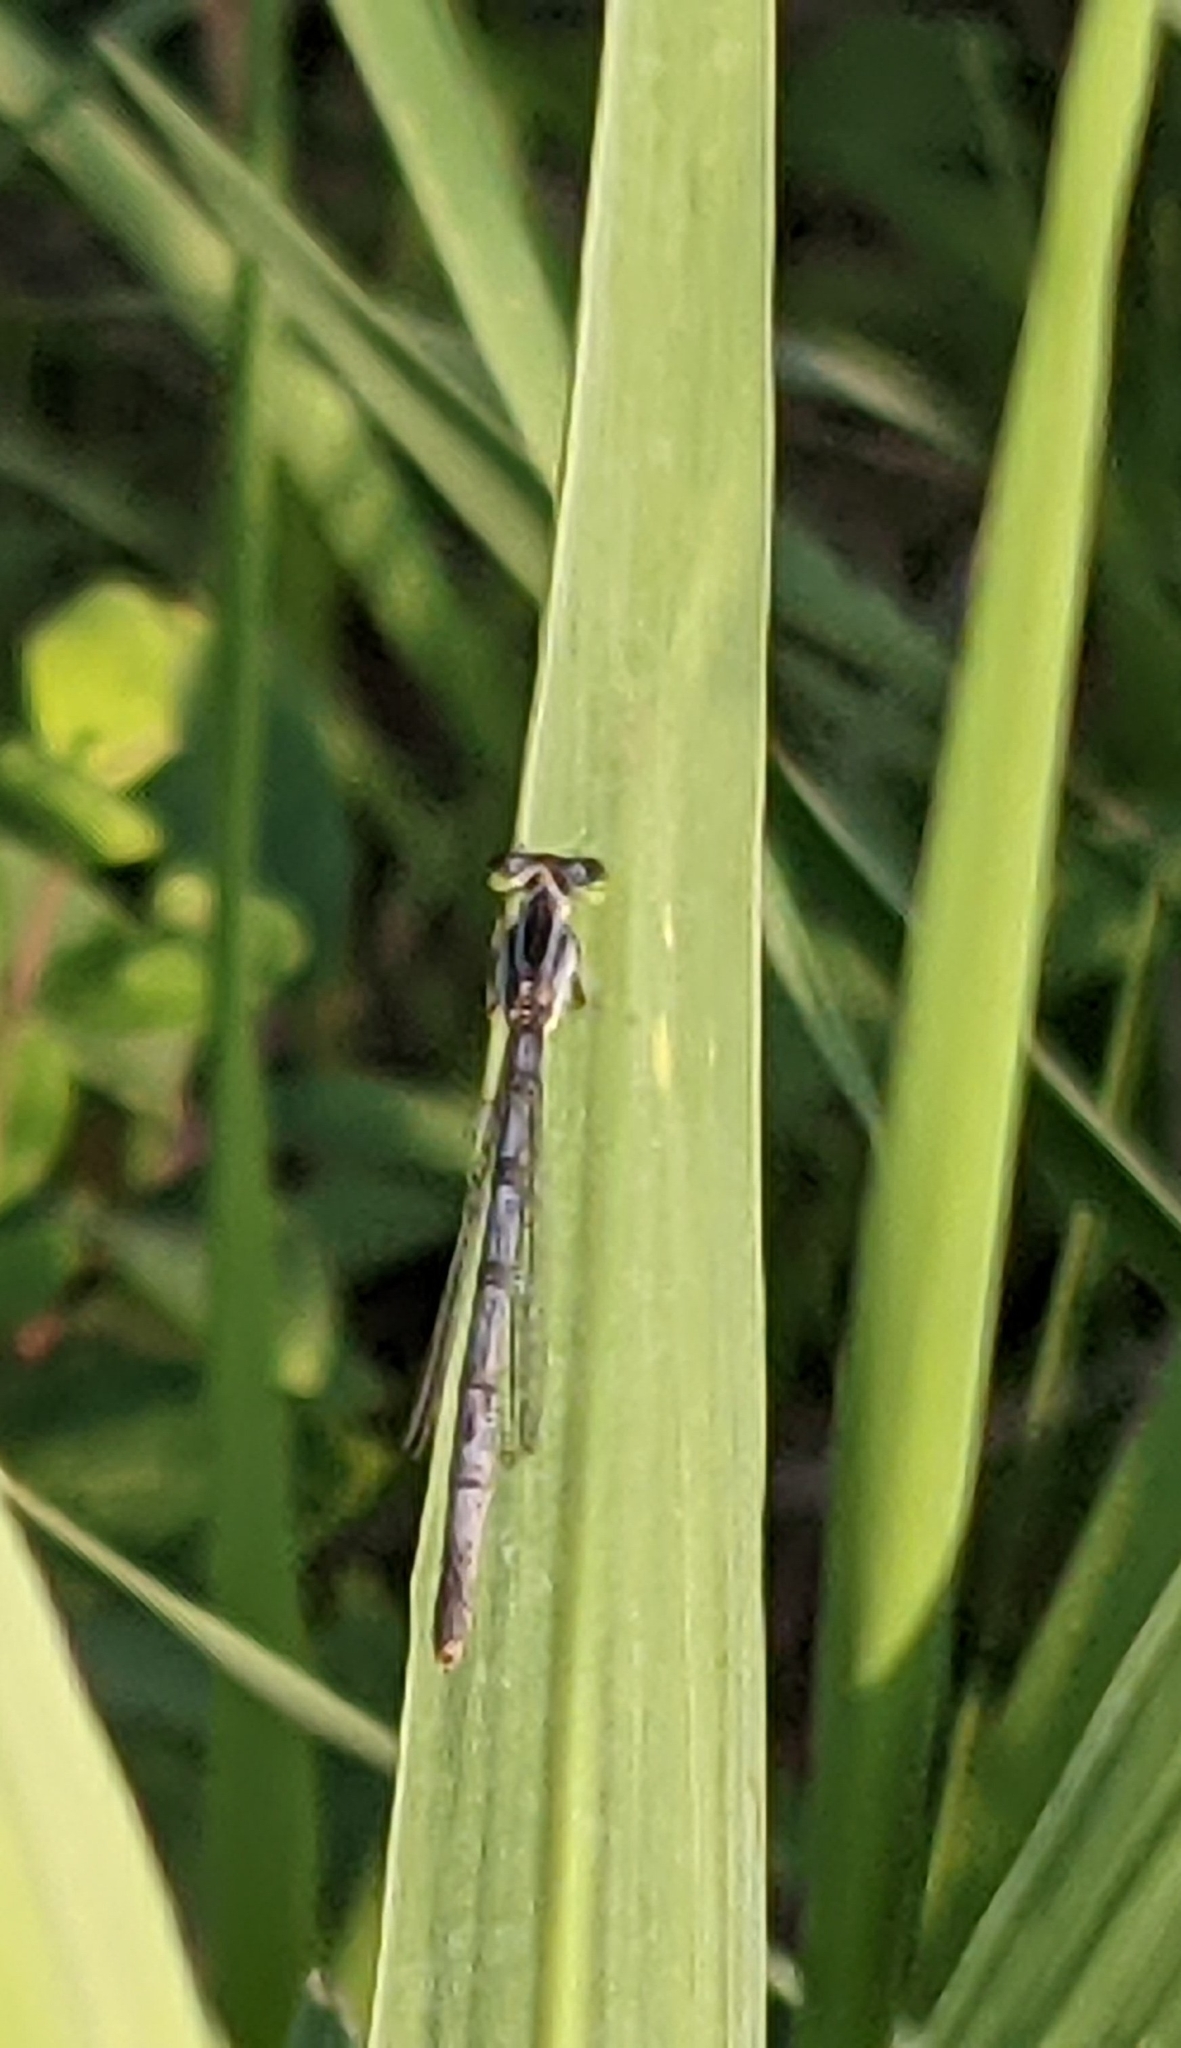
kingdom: Animalia
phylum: Arthropoda
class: Insecta
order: Odonata
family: Coenagrionidae
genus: Ischnura
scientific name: Ischnura verticalis
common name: Eastern forktail
